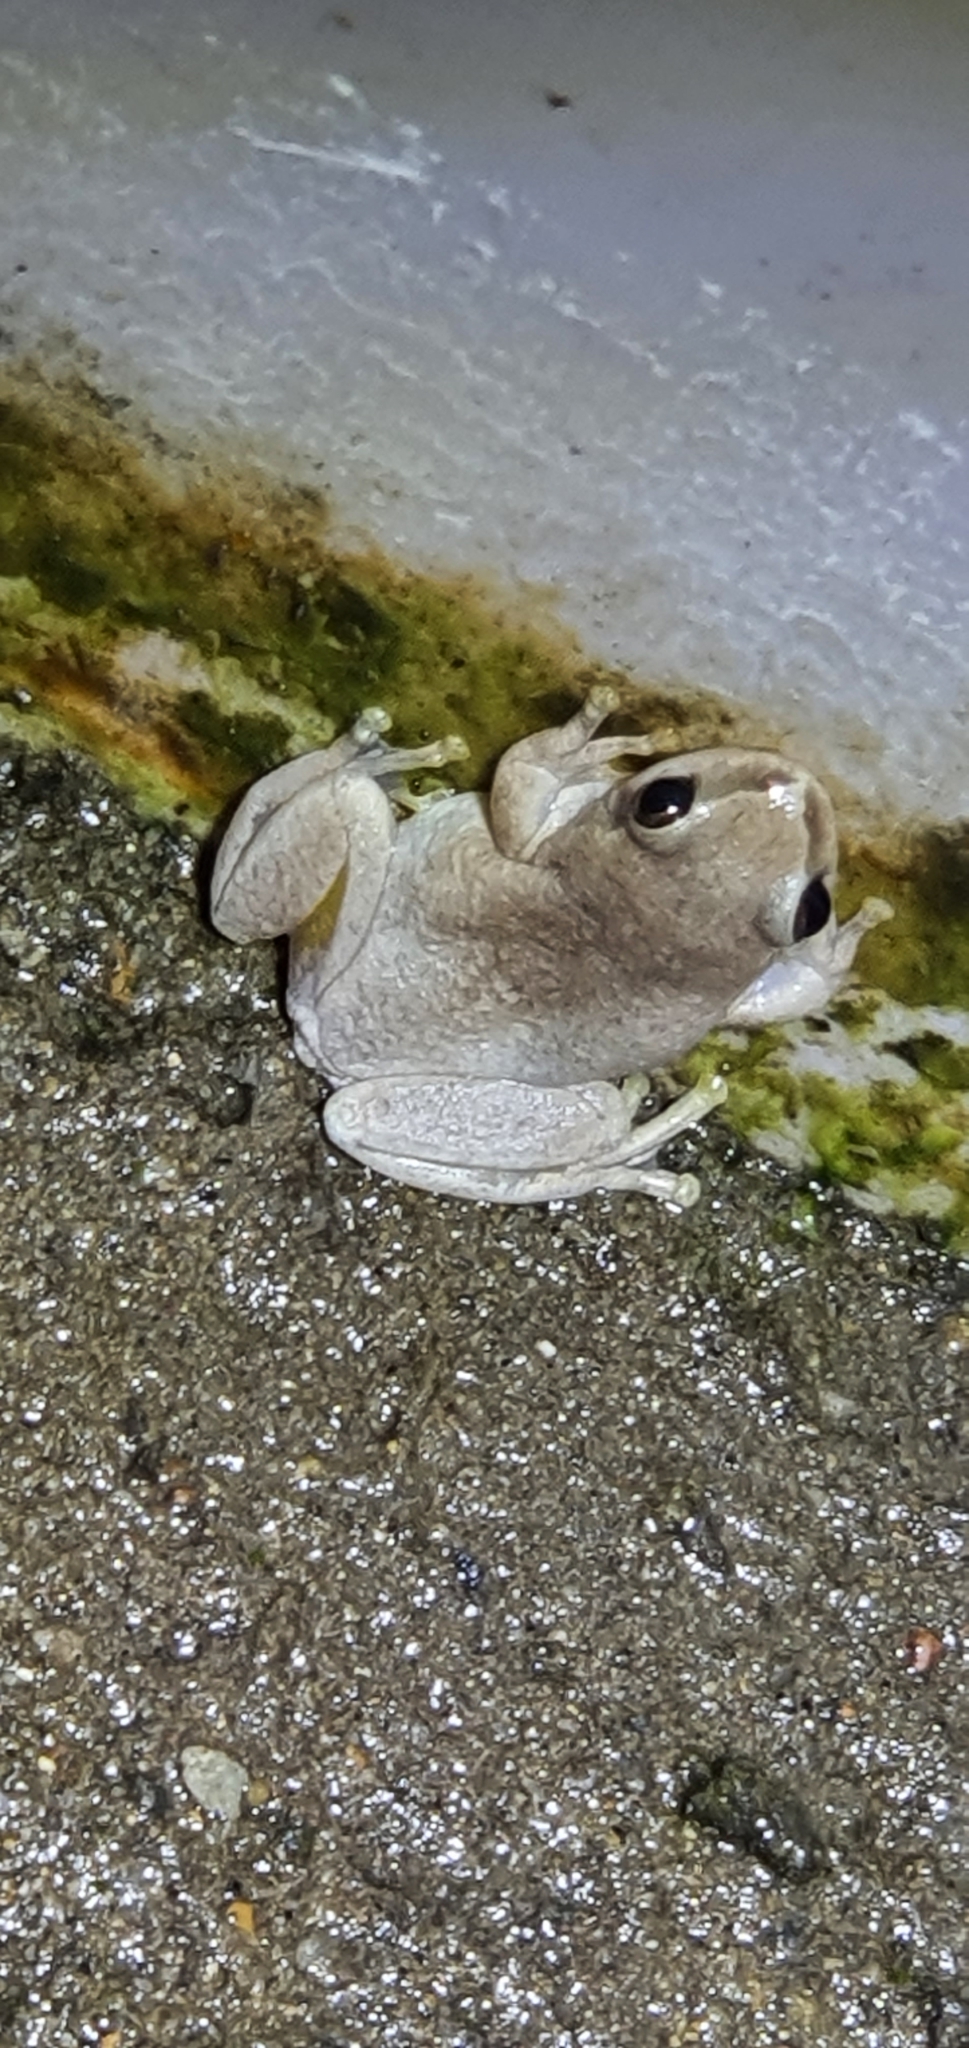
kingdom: Animalia
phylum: Chordata
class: Amphibia
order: Anura
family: Pelodryadidae
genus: Litoria
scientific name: Litoria rubella
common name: Desert tree frog
